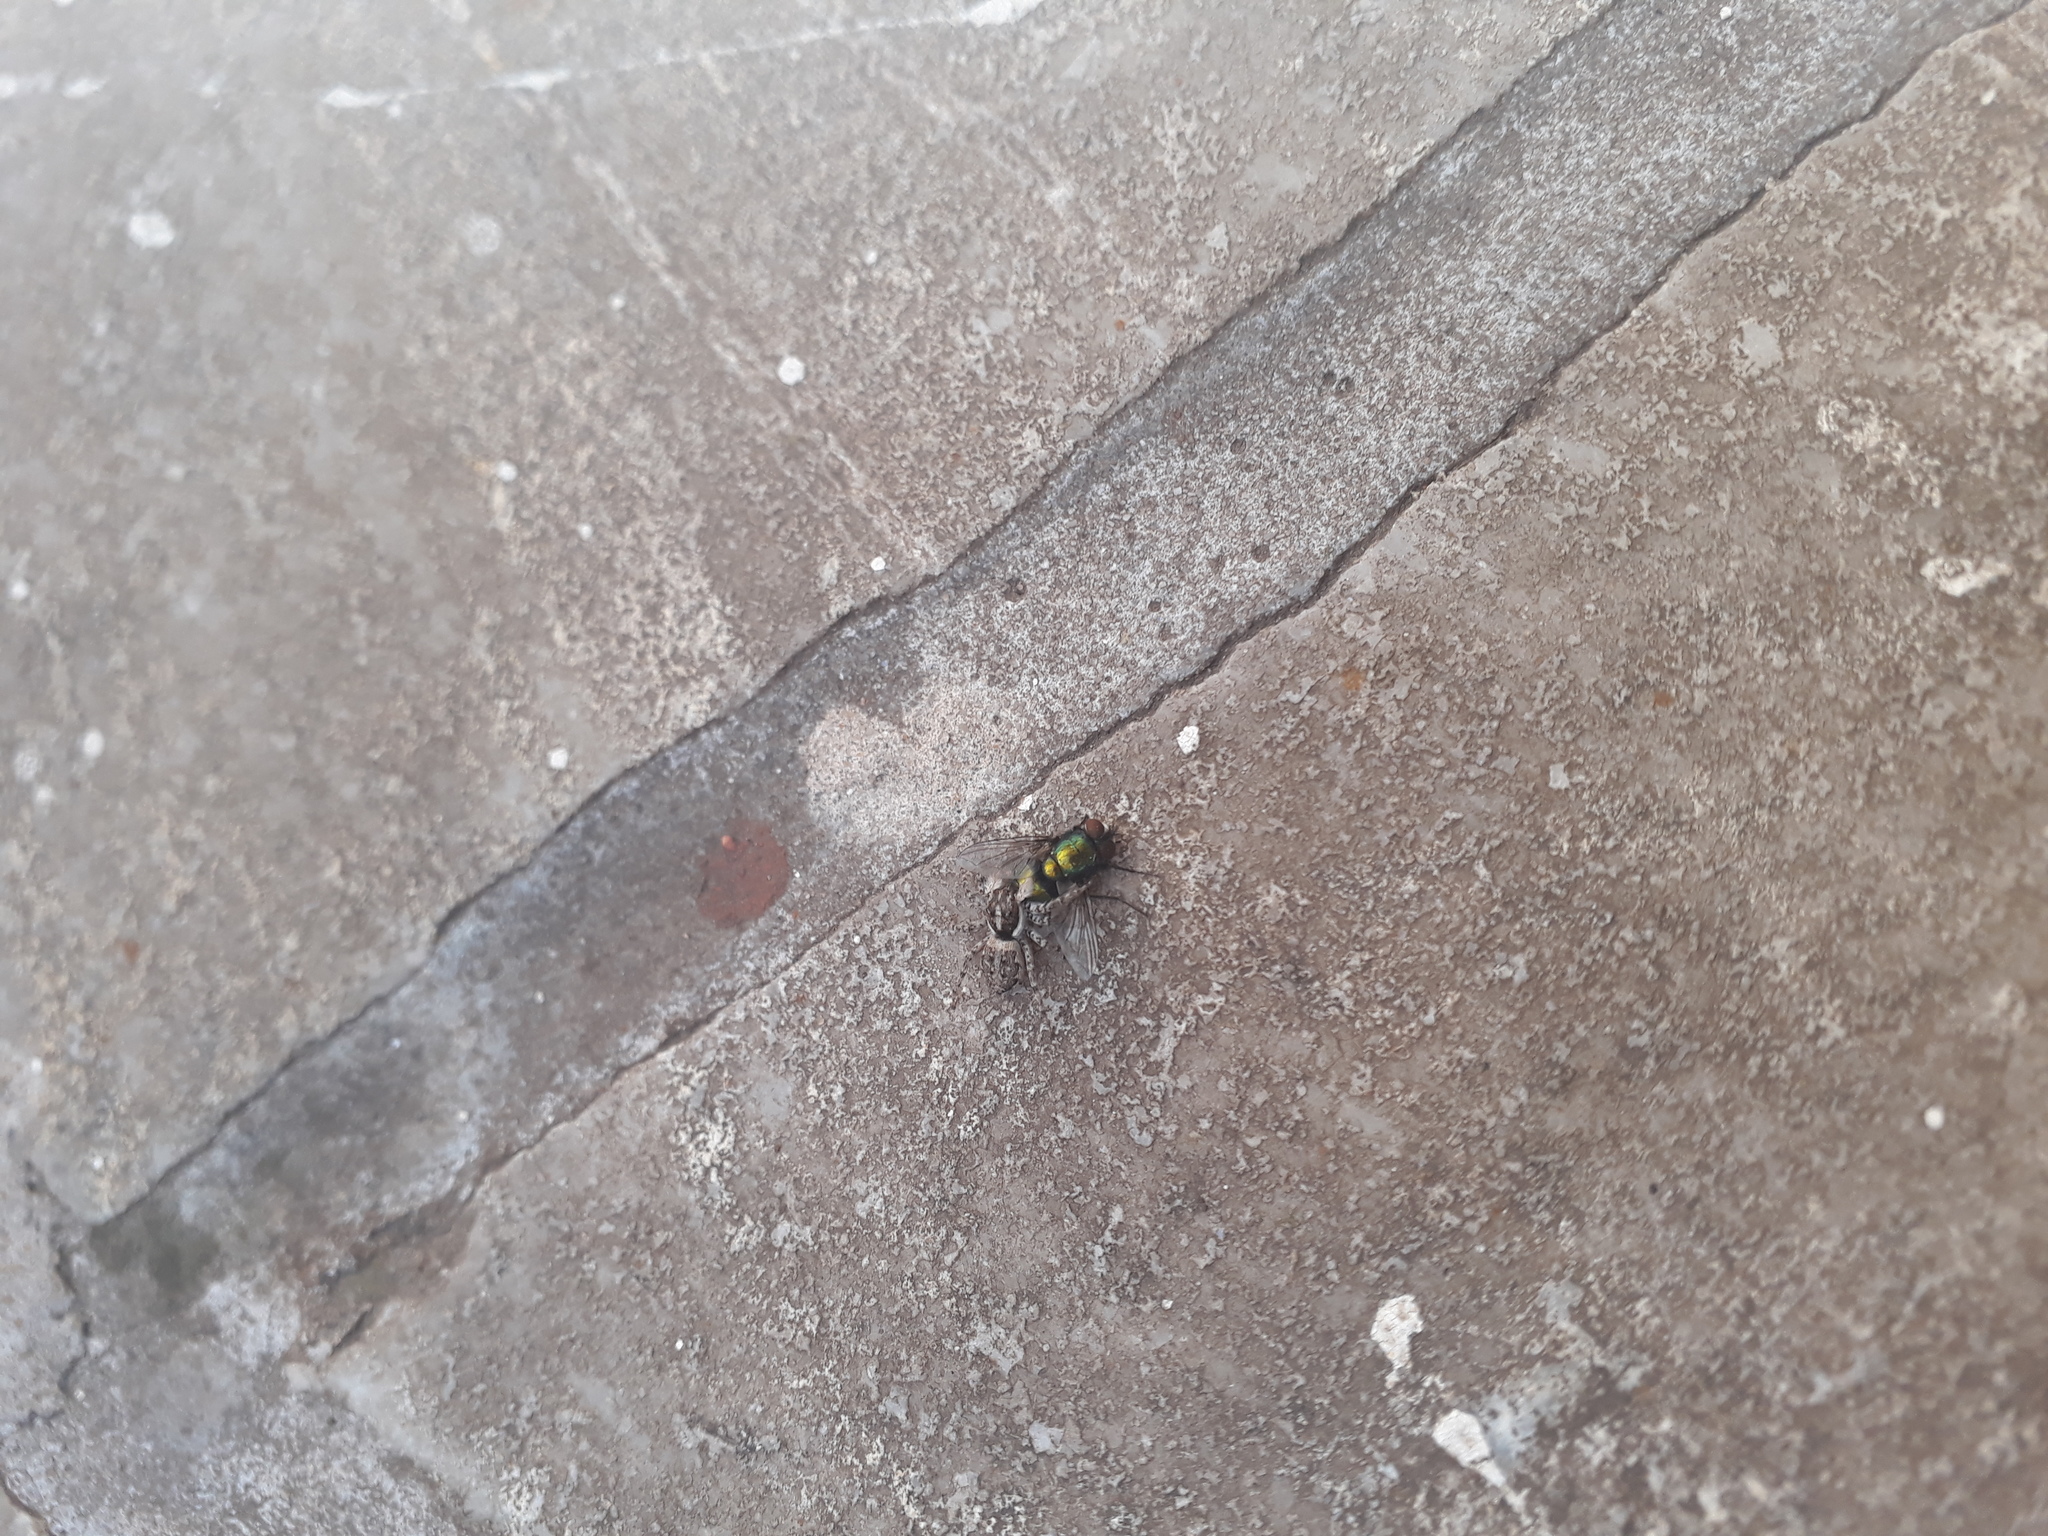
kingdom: Animalia
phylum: Arthropoda
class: Arachnida
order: Araneae
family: Salticidae
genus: Menemerus
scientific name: Menemerus semilimbatus
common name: Jumping spider
